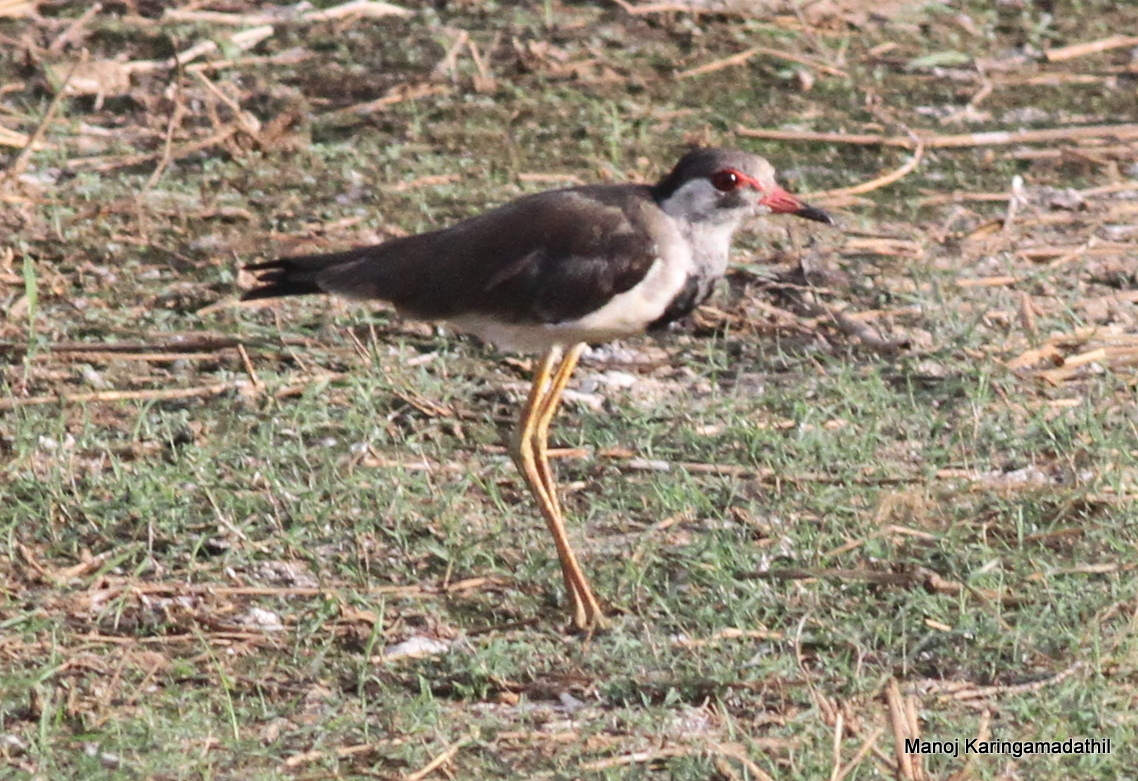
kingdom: Animalia
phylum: Chordata
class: Aves
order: Charadriiformes
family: Charadriidae
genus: Vanellus
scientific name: Vanellus indicus
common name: Red-wattled lapwing
